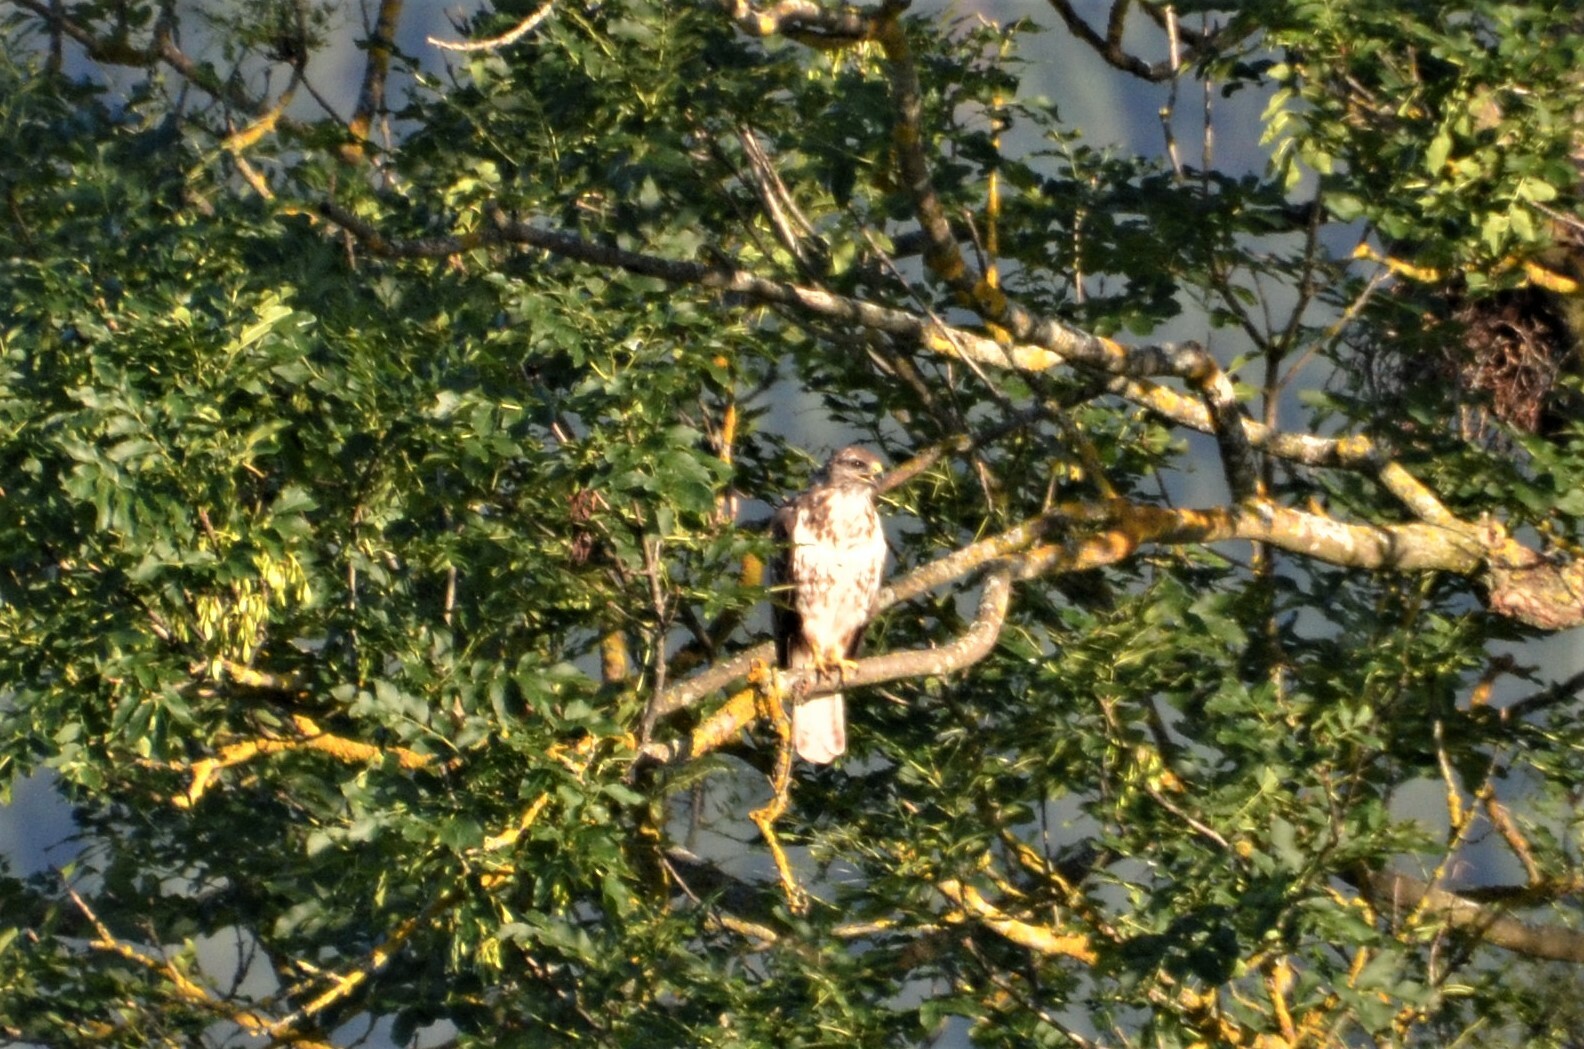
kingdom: Animalia
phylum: Chordata
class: Aves
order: Accipitriformes
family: Accipitridae
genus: Buteo
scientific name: Buteo buteo
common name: Common buzzard
